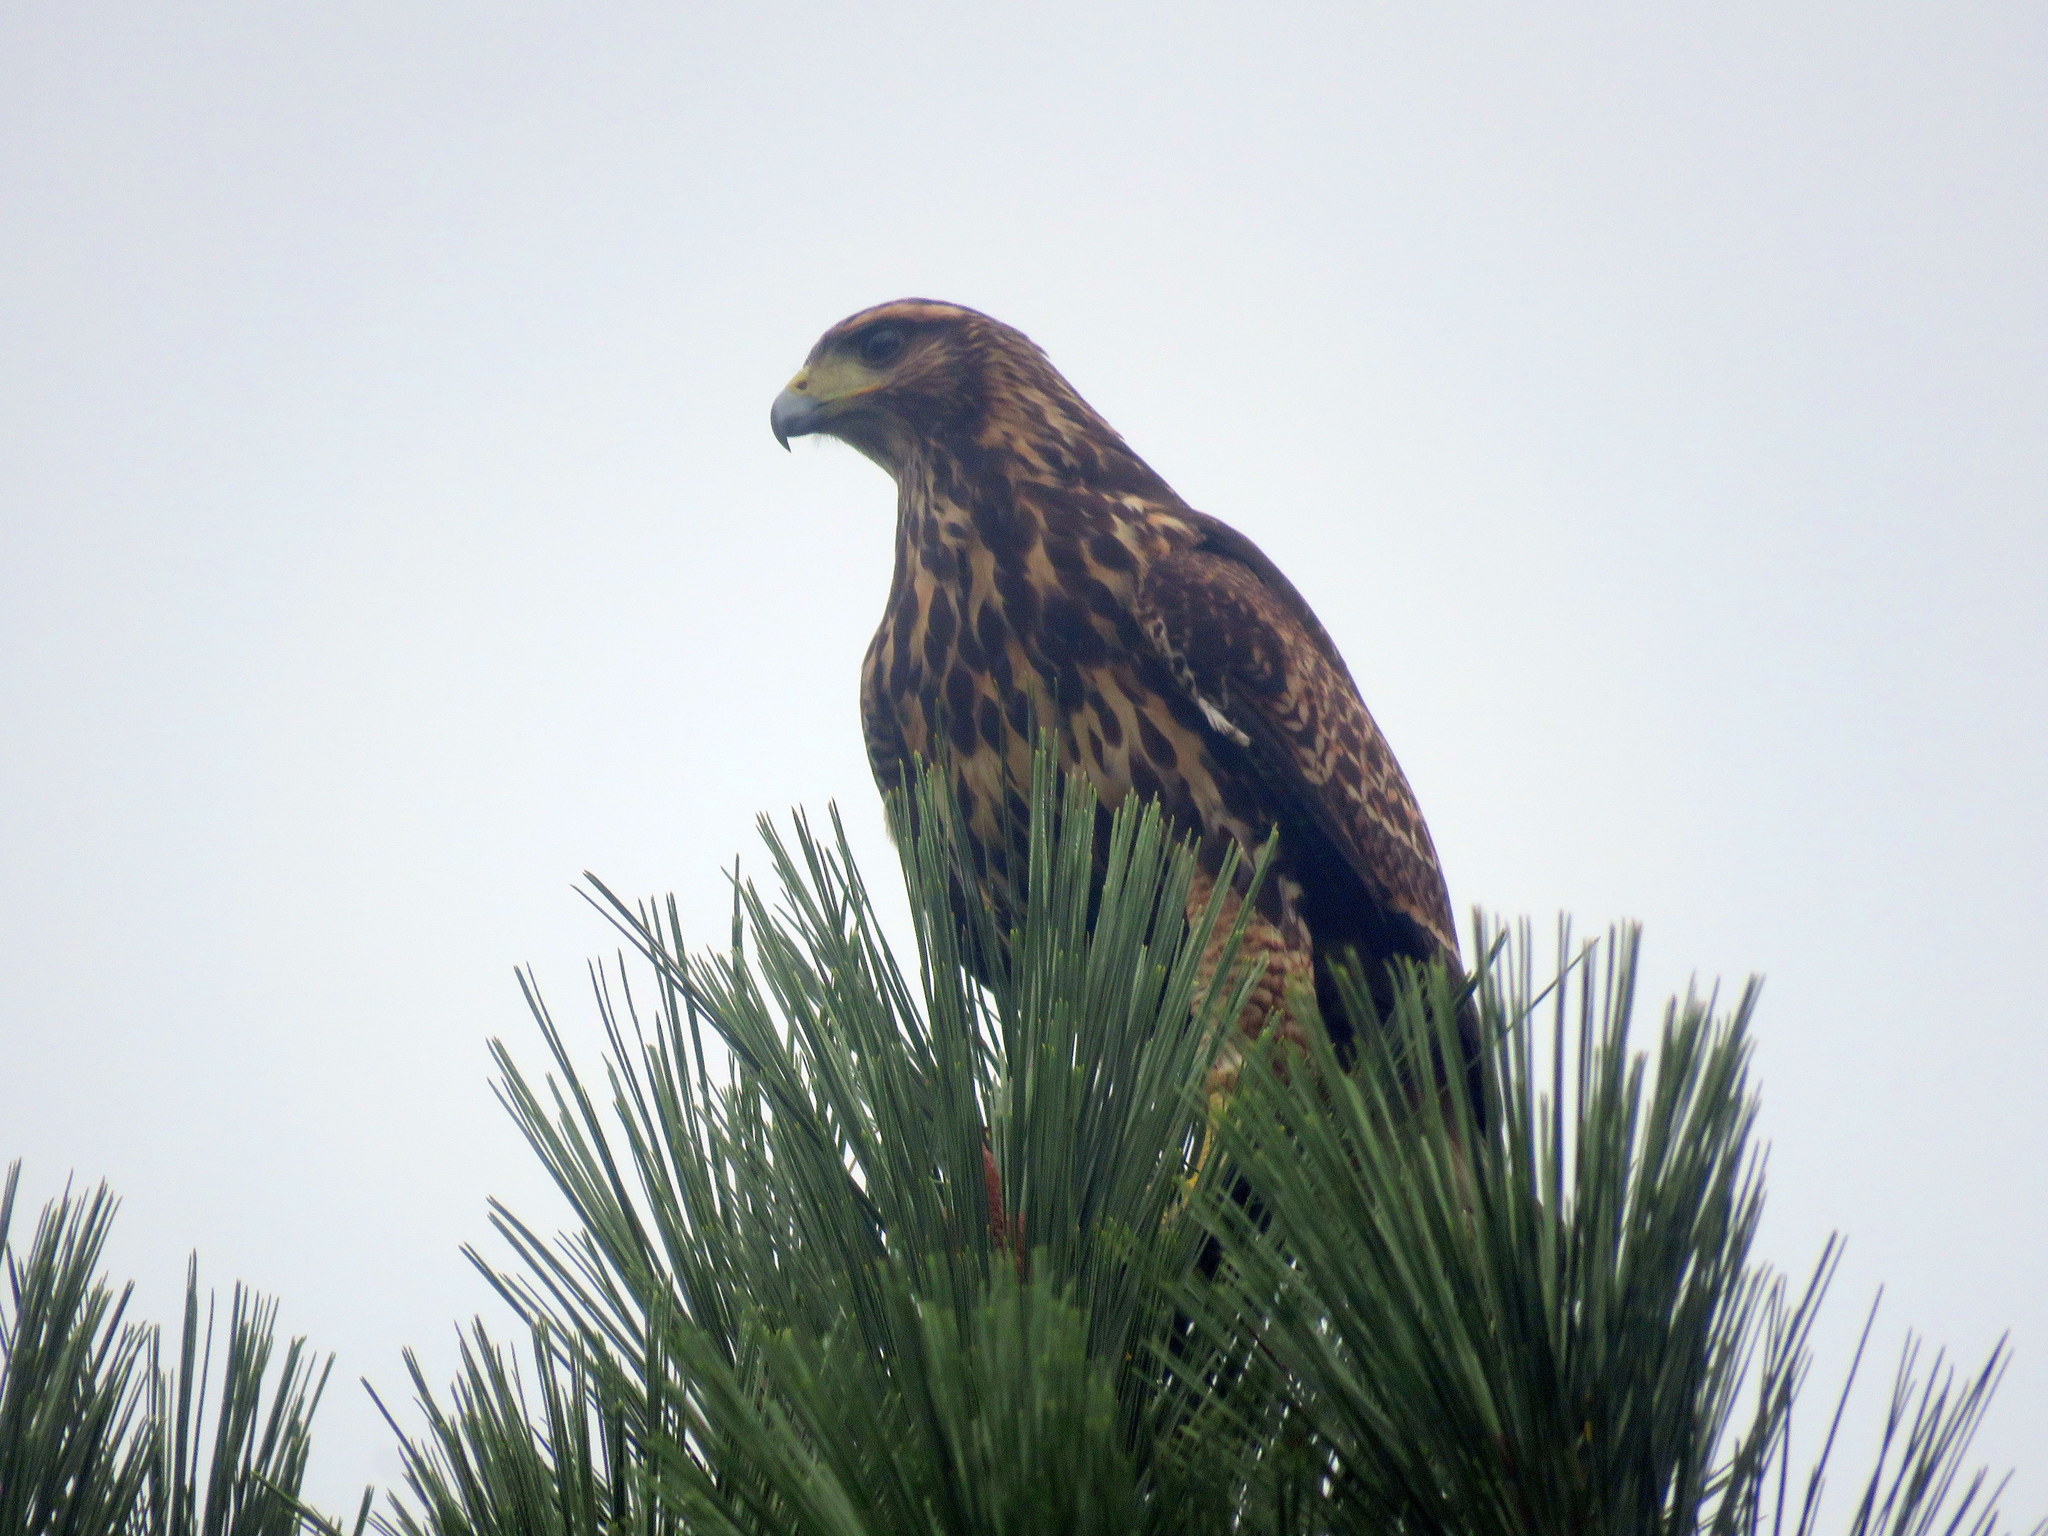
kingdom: Animalia
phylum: Chordata
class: Aves
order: Accipitriformes
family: Accipitridae
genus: Parabuteo
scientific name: Parabuteo unicinctus
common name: Harris's hawk
